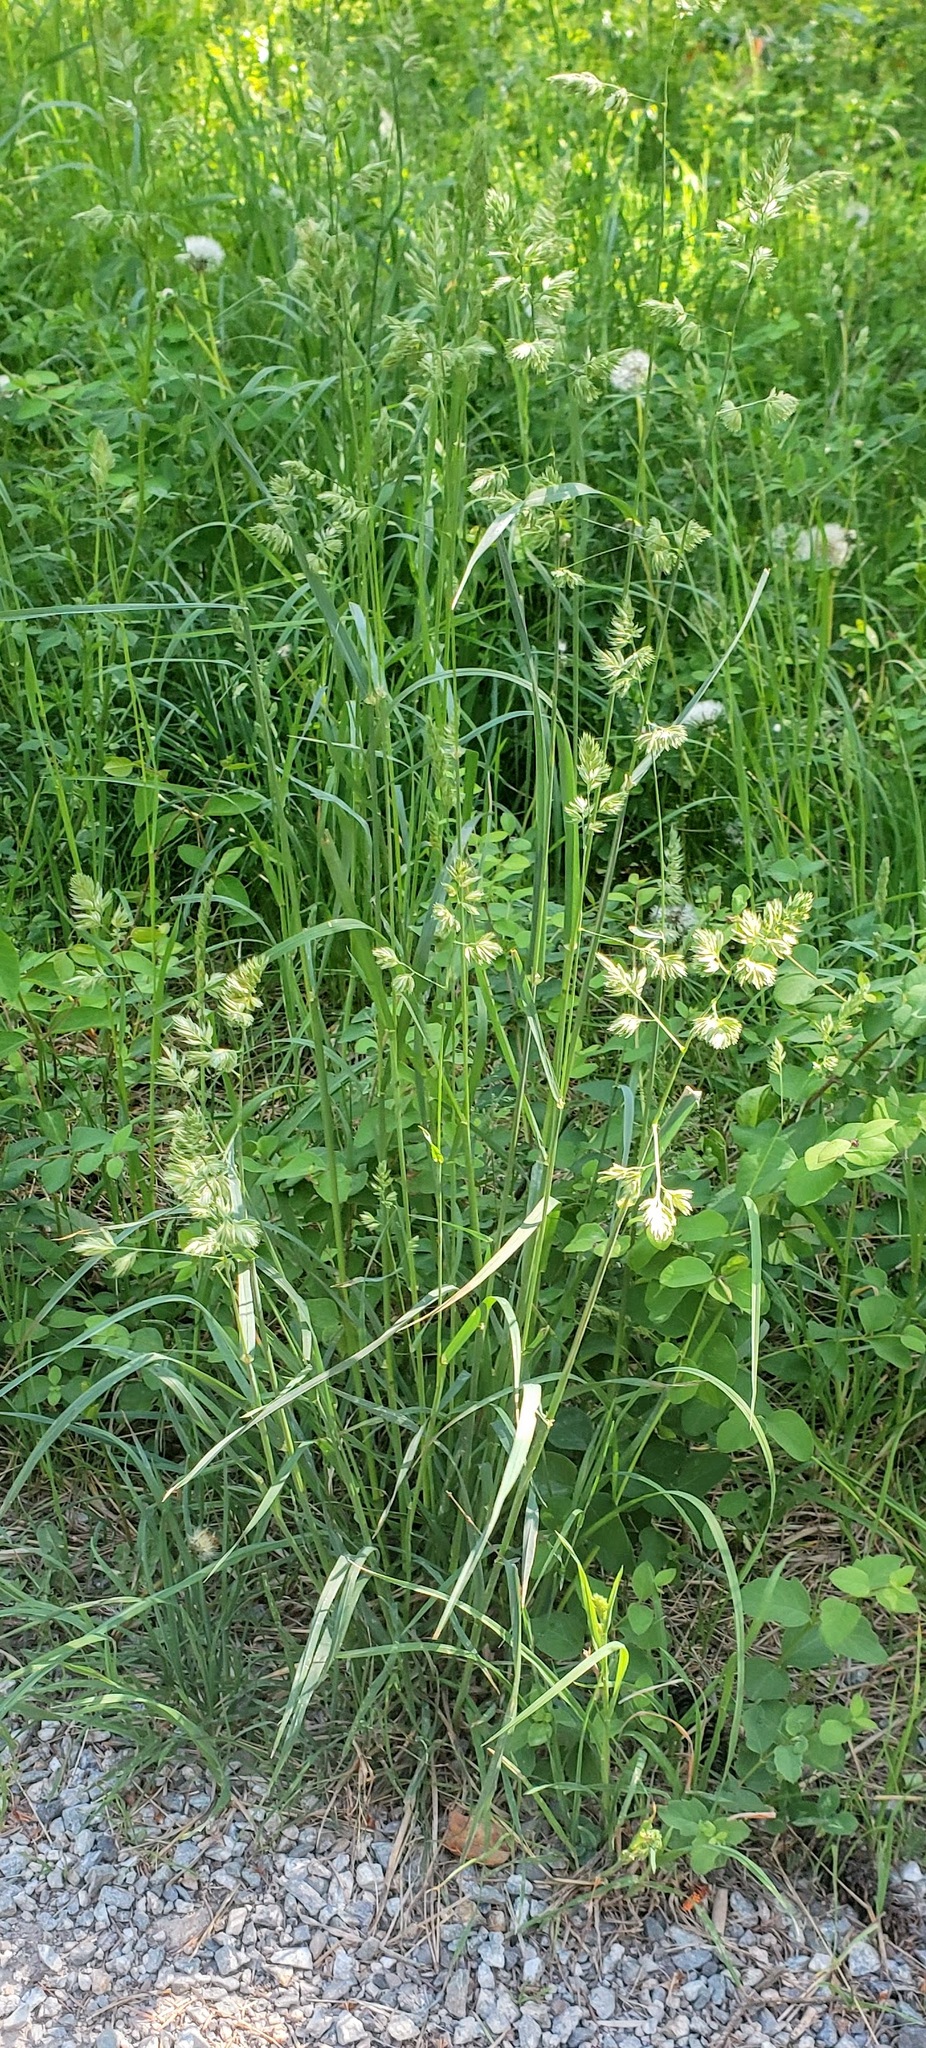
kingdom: Plantae
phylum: Tracheophyta
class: Liliopsida
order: Poales
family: Poaceae
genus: Dactylis
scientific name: Dactylis glomerata
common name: Orchardgrass
